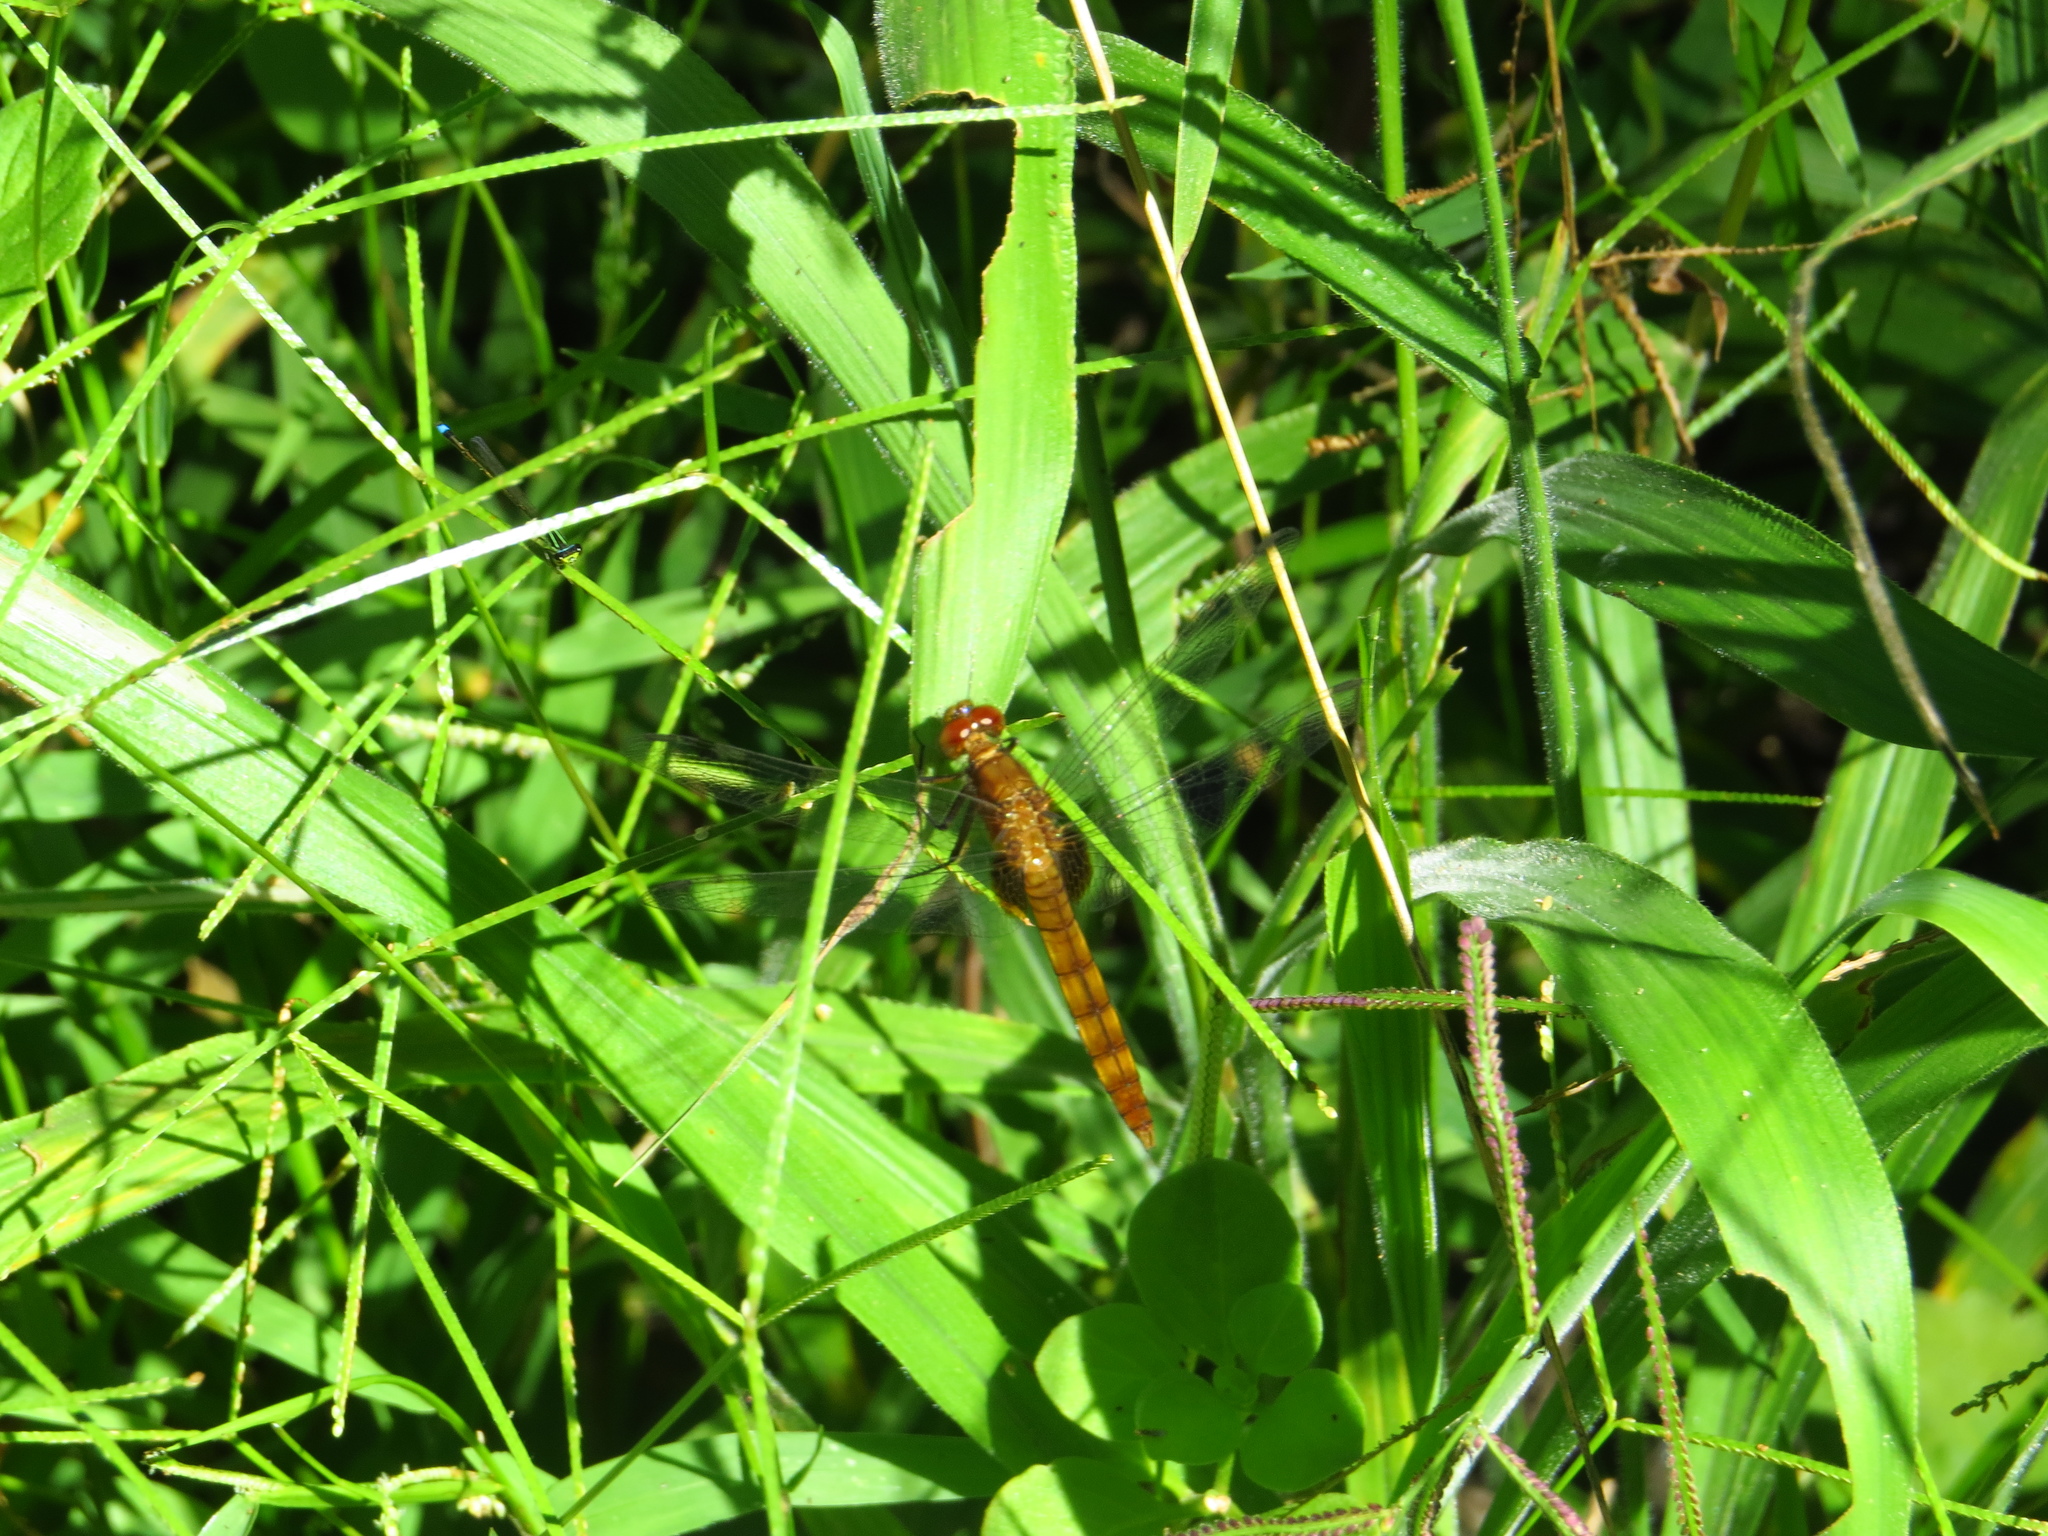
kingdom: Animalia
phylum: Arthropoda
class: Insecta
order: Odonata
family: Libellulidae
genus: Erythemis
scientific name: Erythemis mithroides
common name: Claret pondhawk
